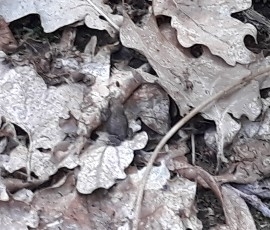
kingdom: Animalia
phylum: Chordata
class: Amphibia
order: Anura
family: Bufonidae
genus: Bufo
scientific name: Bufo bufo
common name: Common toad
